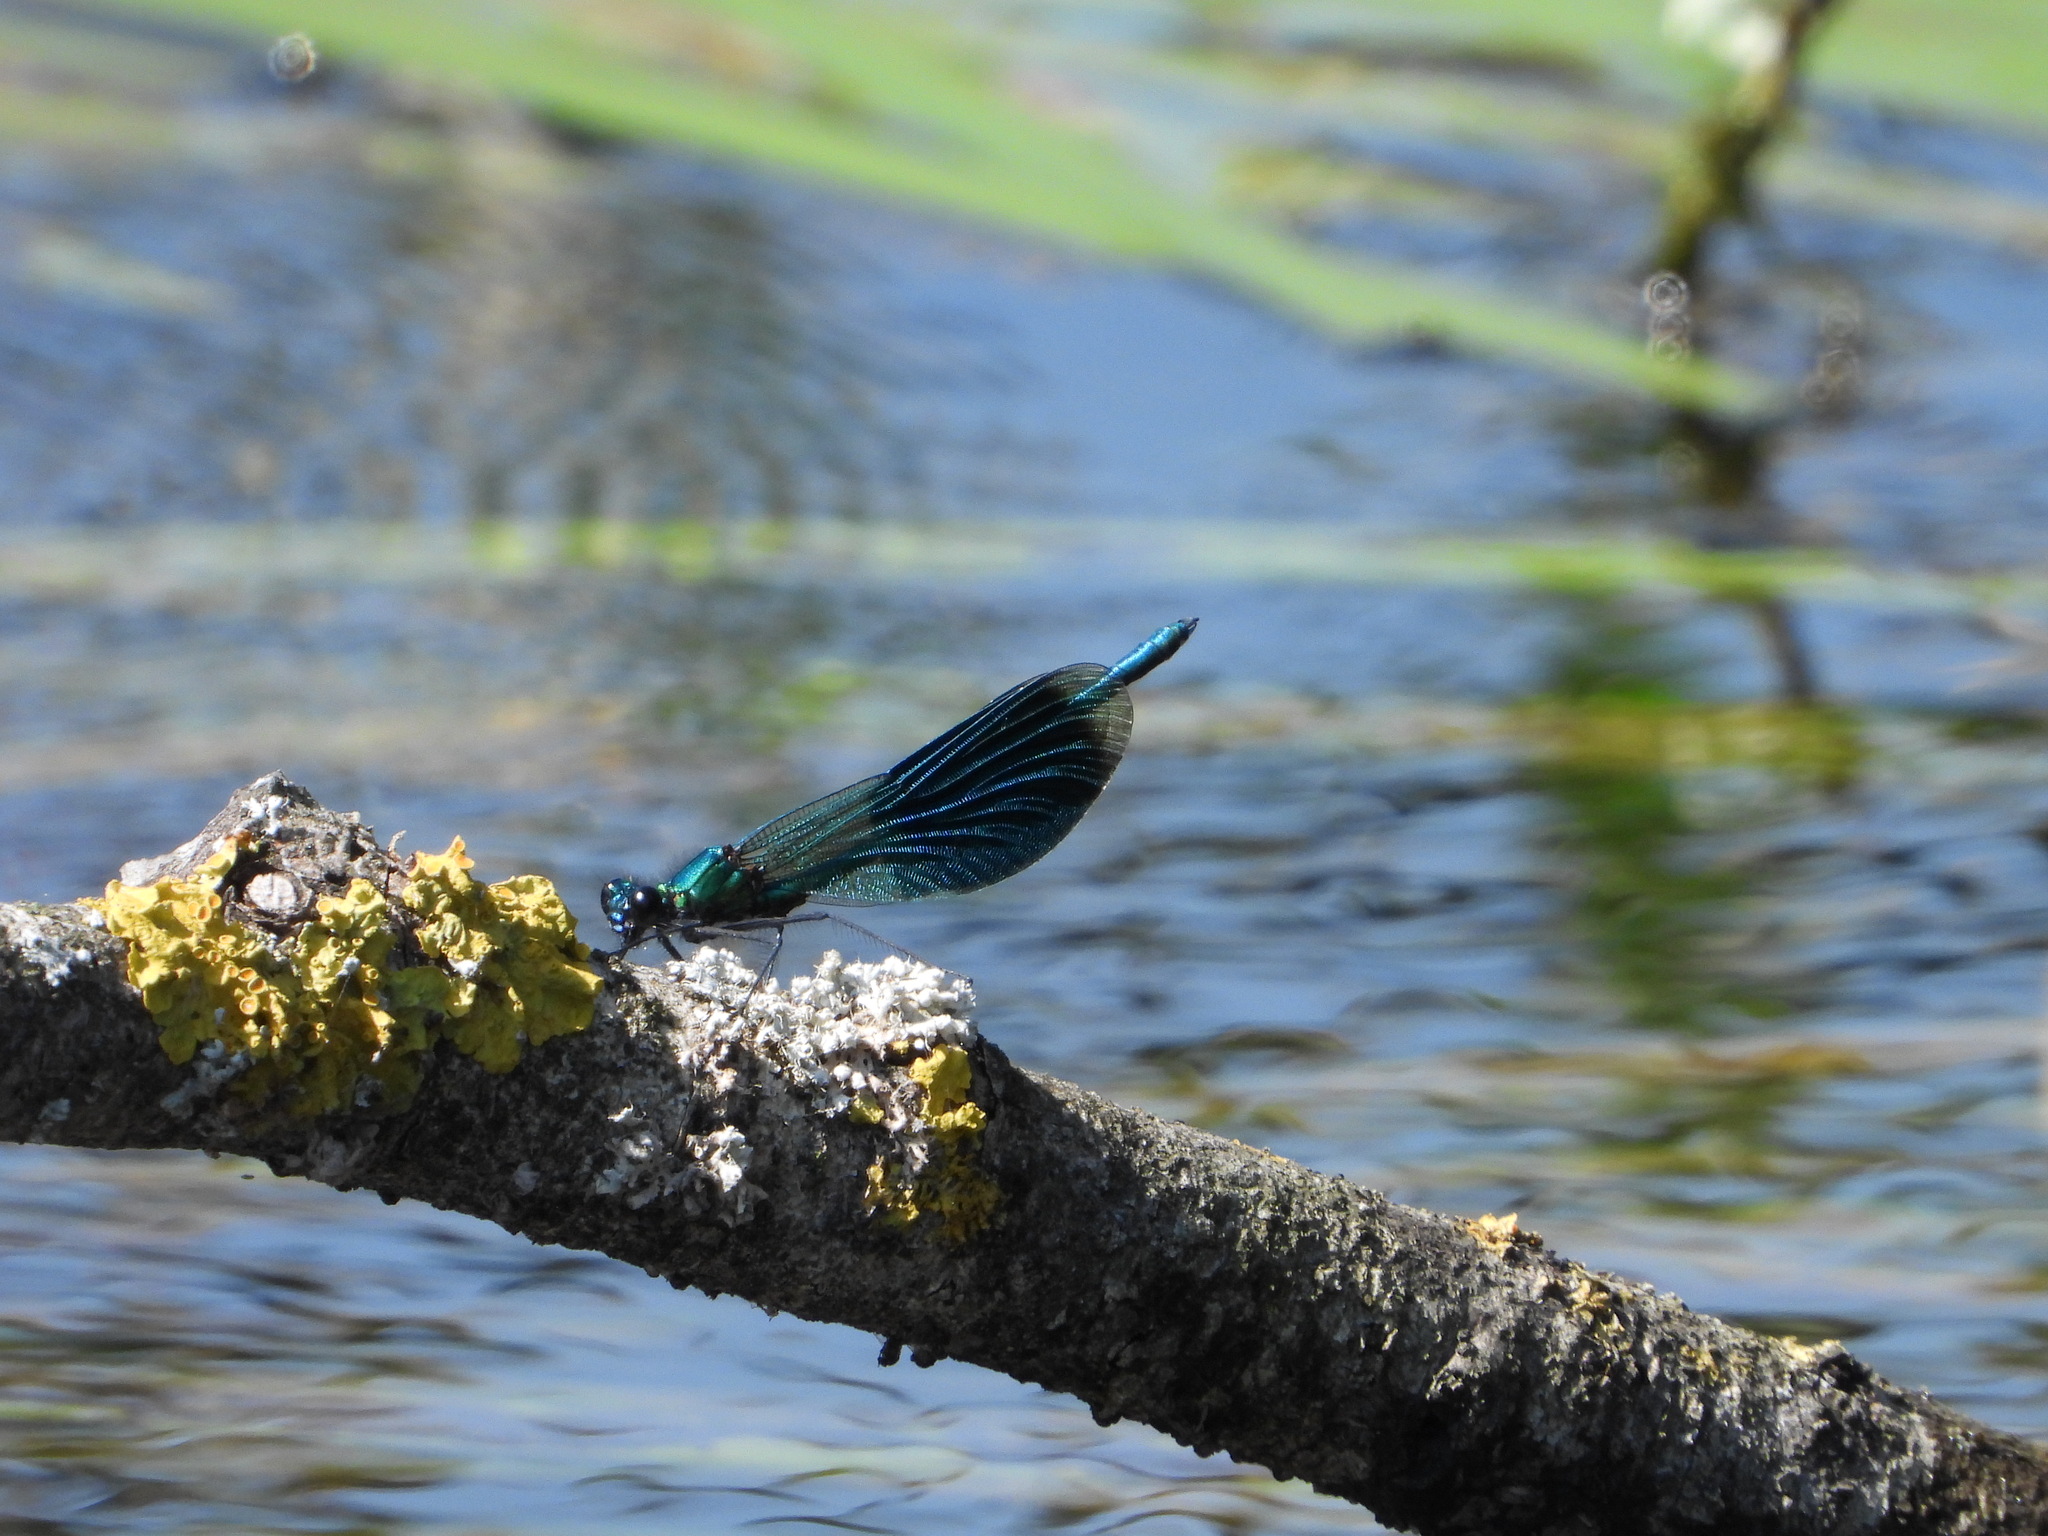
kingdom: Animalia
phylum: Arthropoda
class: Insecta
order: Odonata
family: Calopterygidae
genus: Calopteryx
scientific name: Calopteryx splendens
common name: Banded demoiselle
